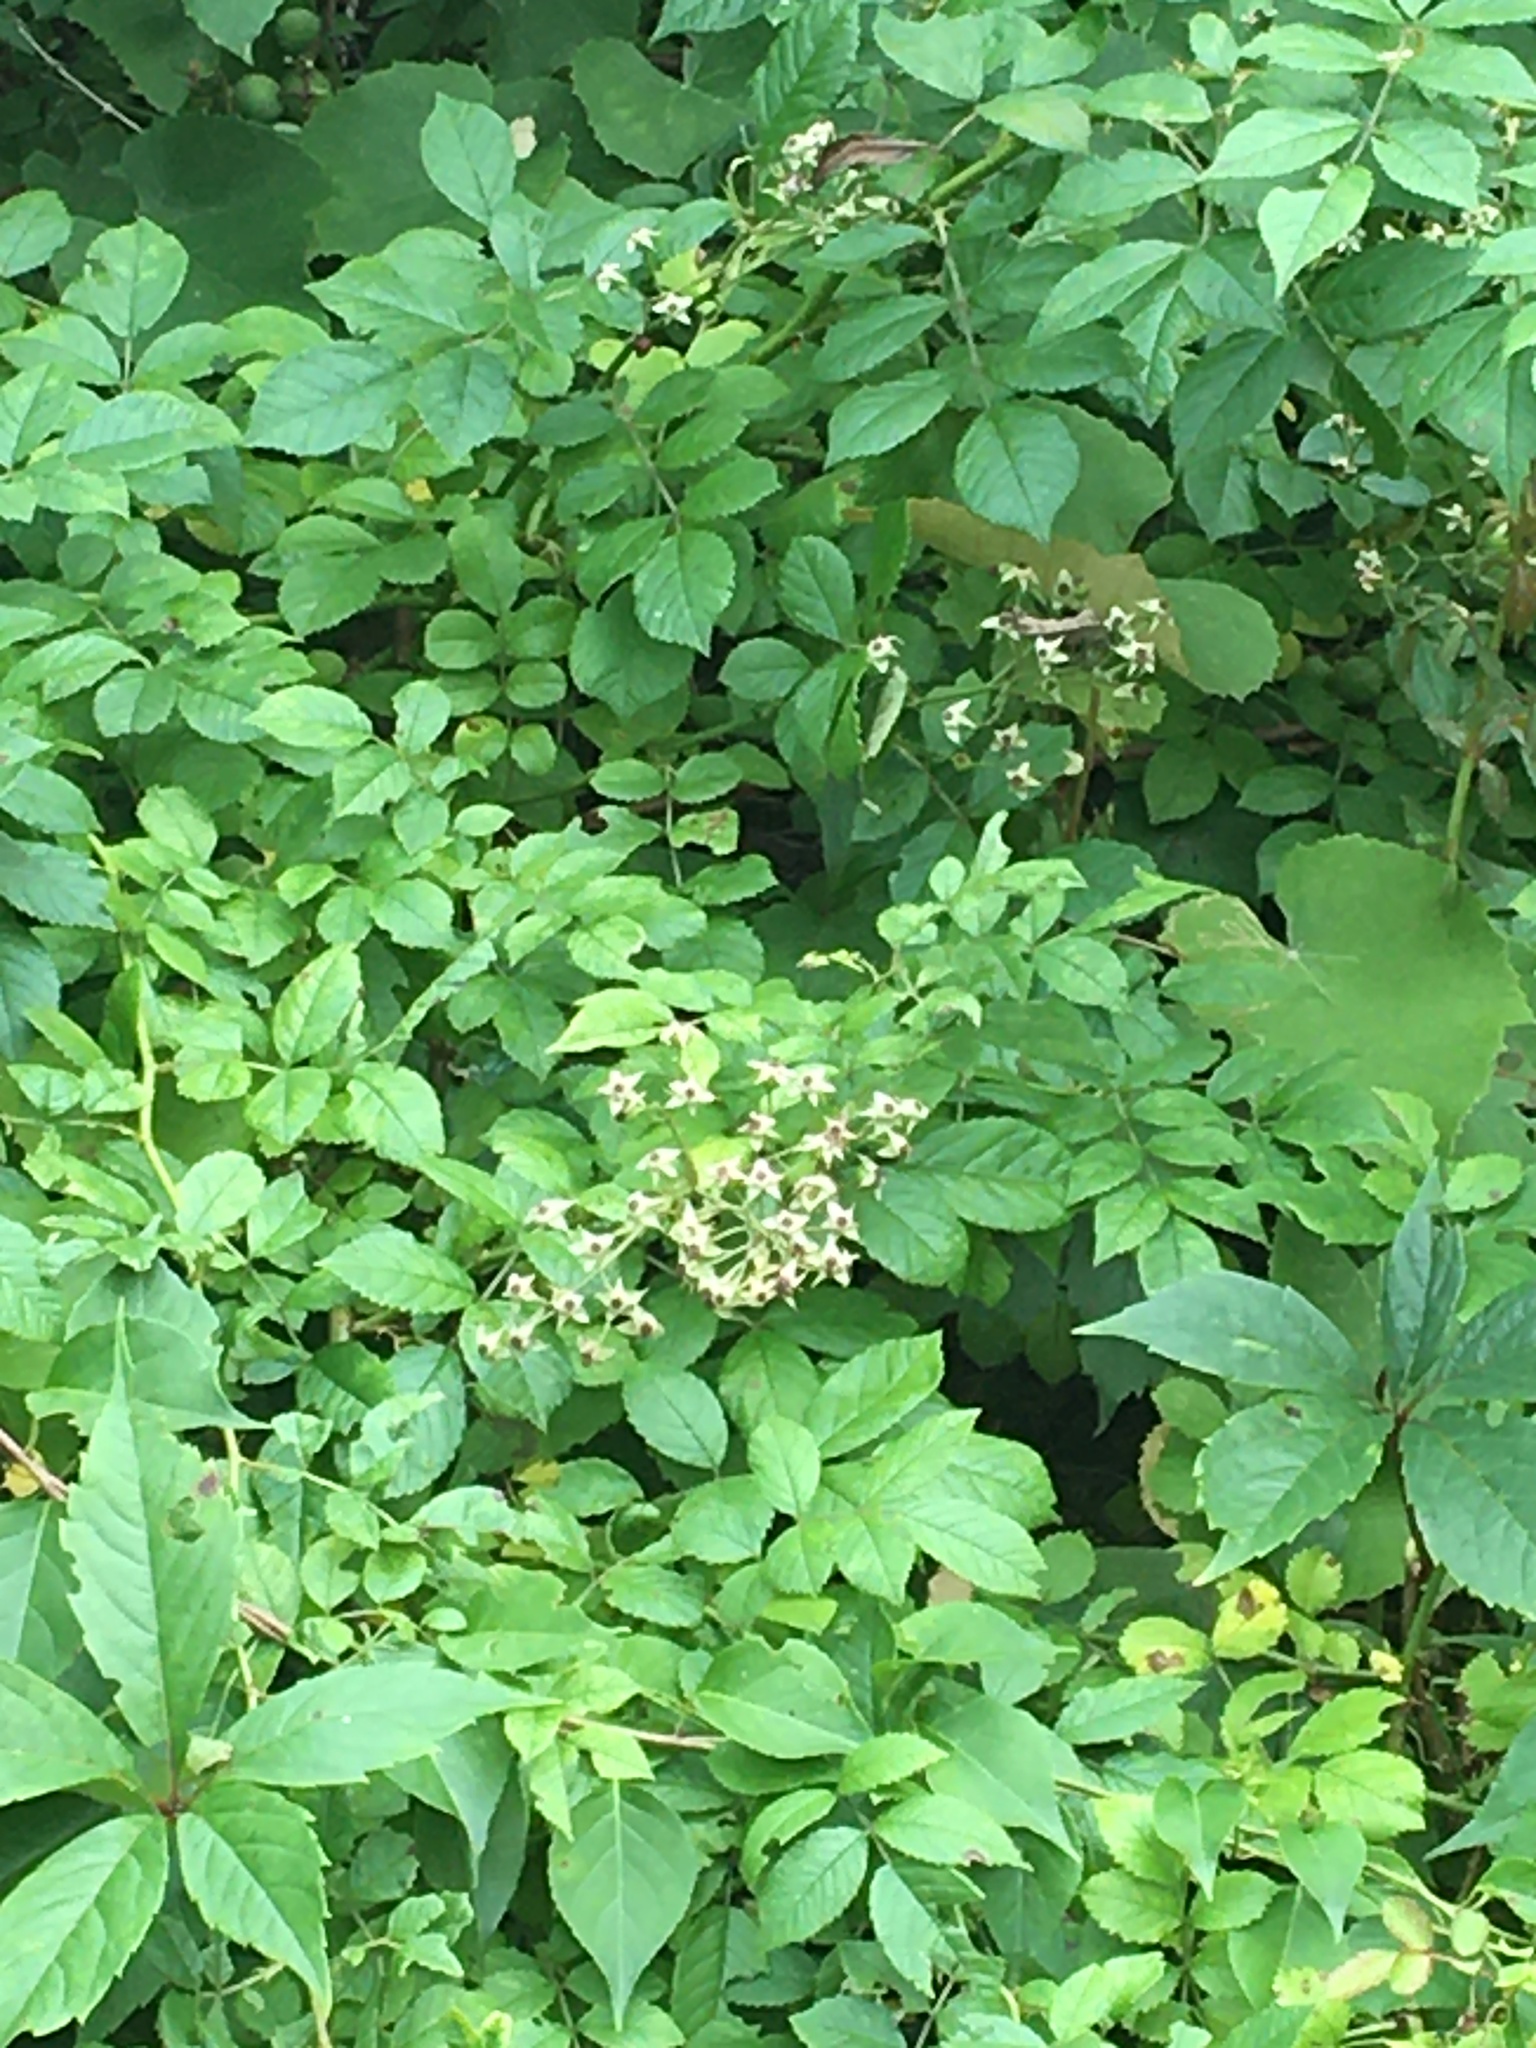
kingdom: Plantae
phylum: Tracheophyta
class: Magnoliopsida
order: Rosales
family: Rosaceae
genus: Rosa
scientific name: Rosa multiflora
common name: Multiflora rose
